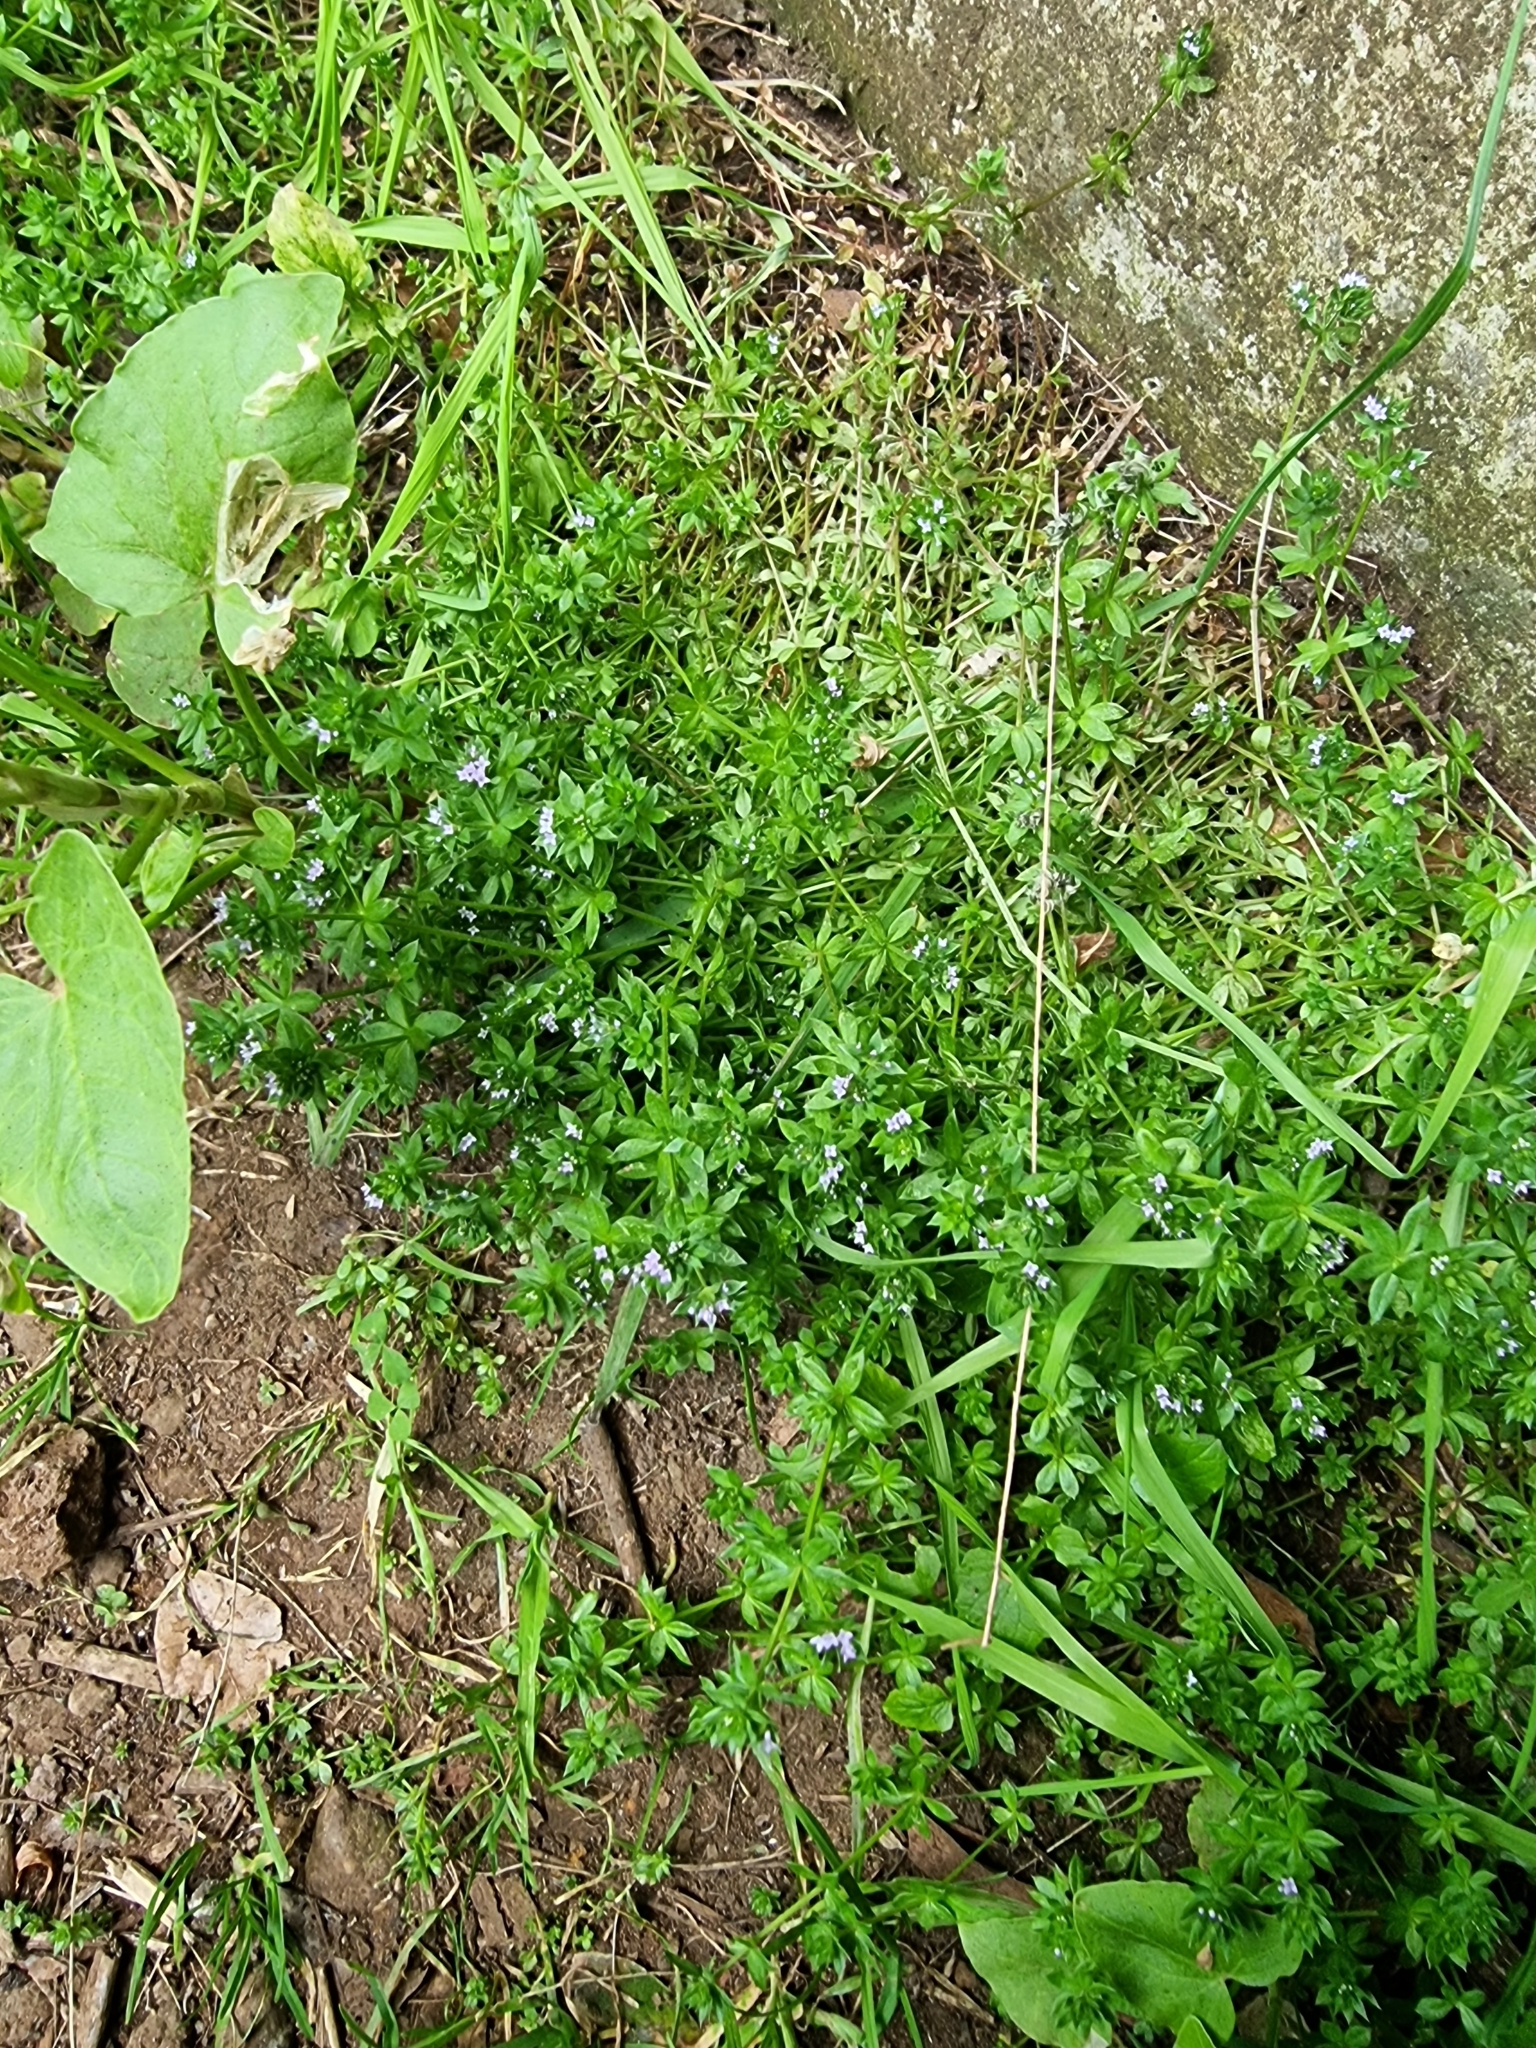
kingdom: Plantae
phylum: Tracheophyta
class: Magnoliopsida
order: Gentianales
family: Rubiaceae
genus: Sherardia
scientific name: Sherardia arvensis
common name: Field madder
